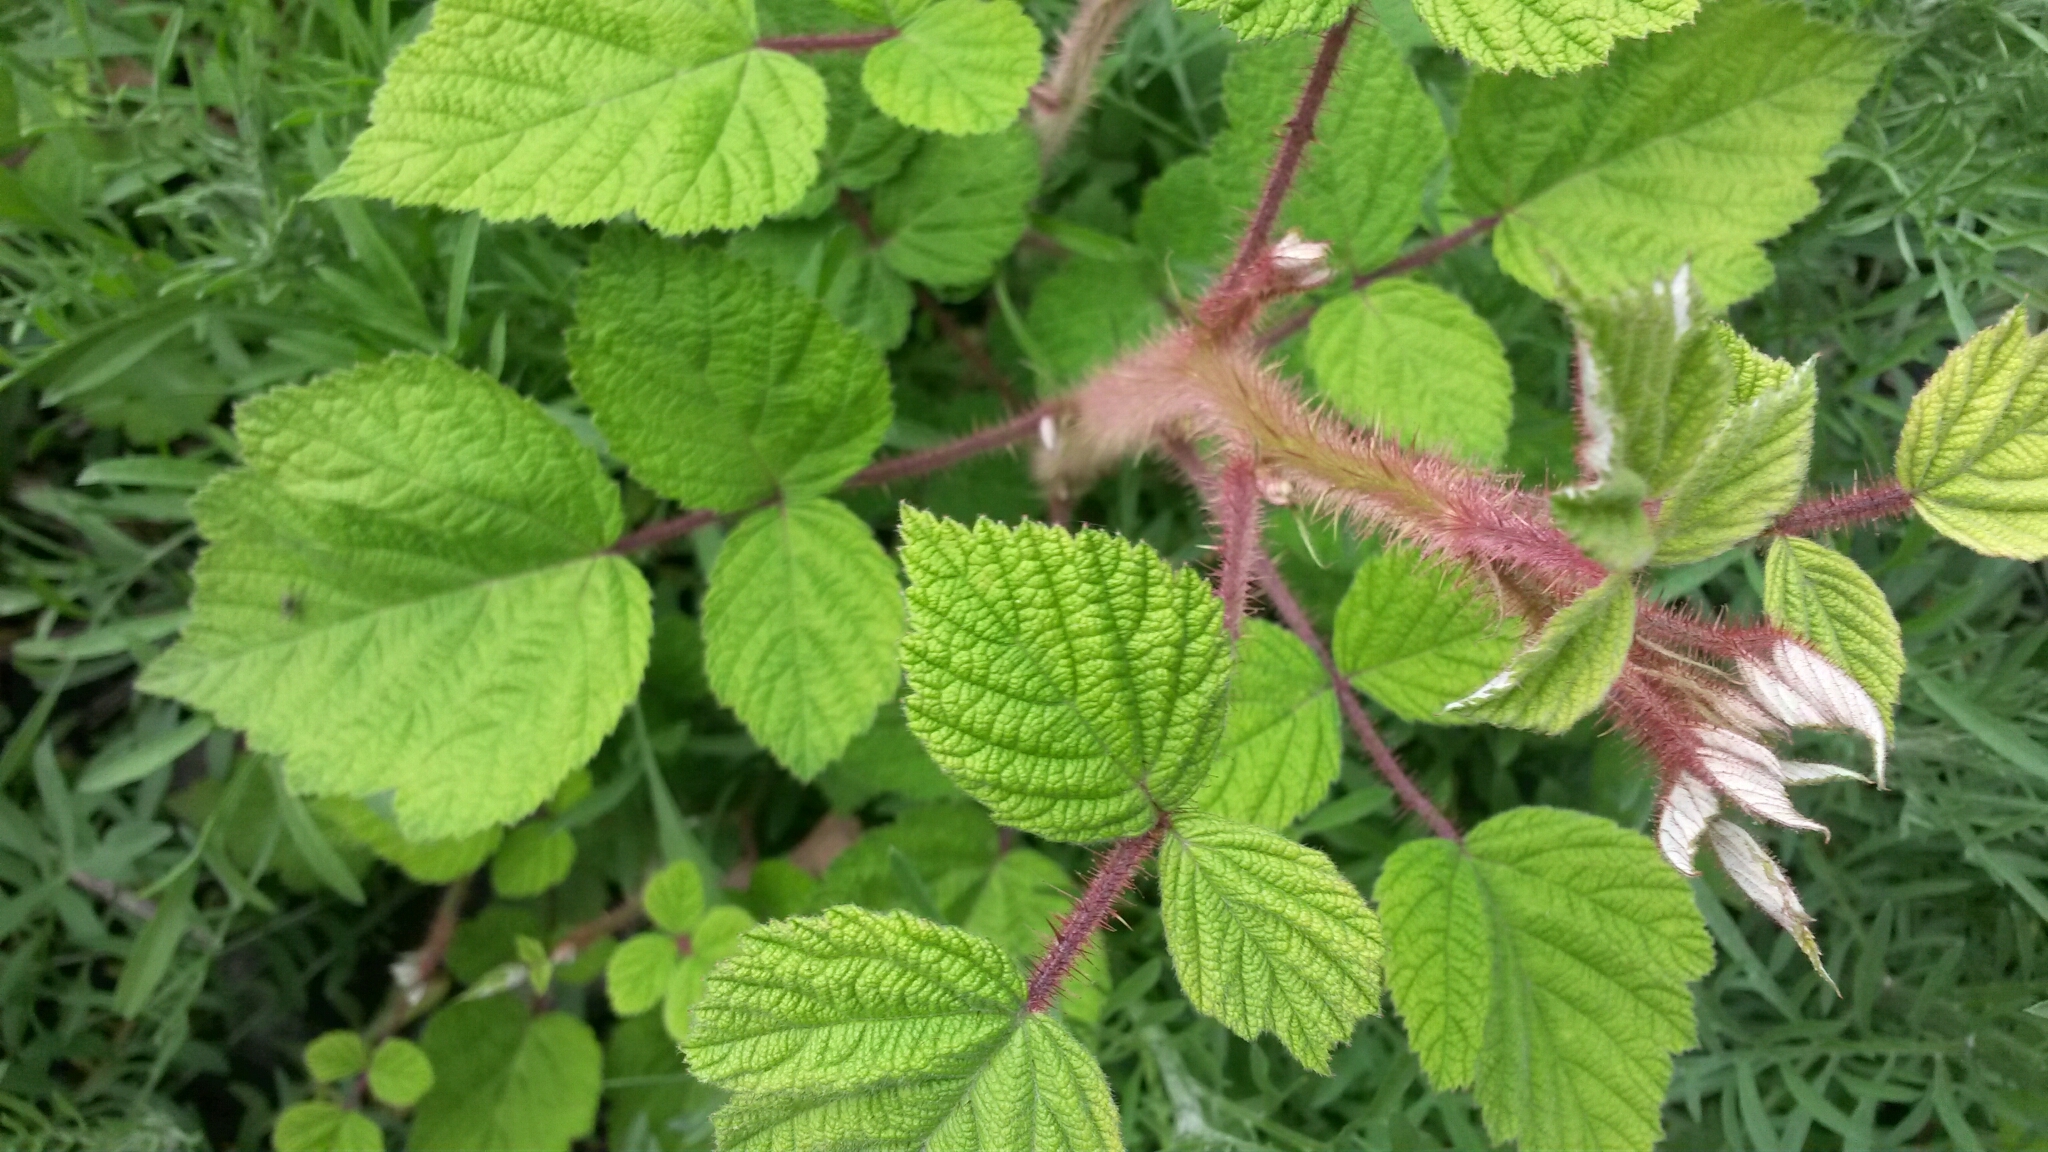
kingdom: Plantae
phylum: Tracheophyta
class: Magnoliopsida
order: Rosales
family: Rosaceae
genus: Rubus
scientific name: Rubus phoenicolasius
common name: Japanese wineberry
